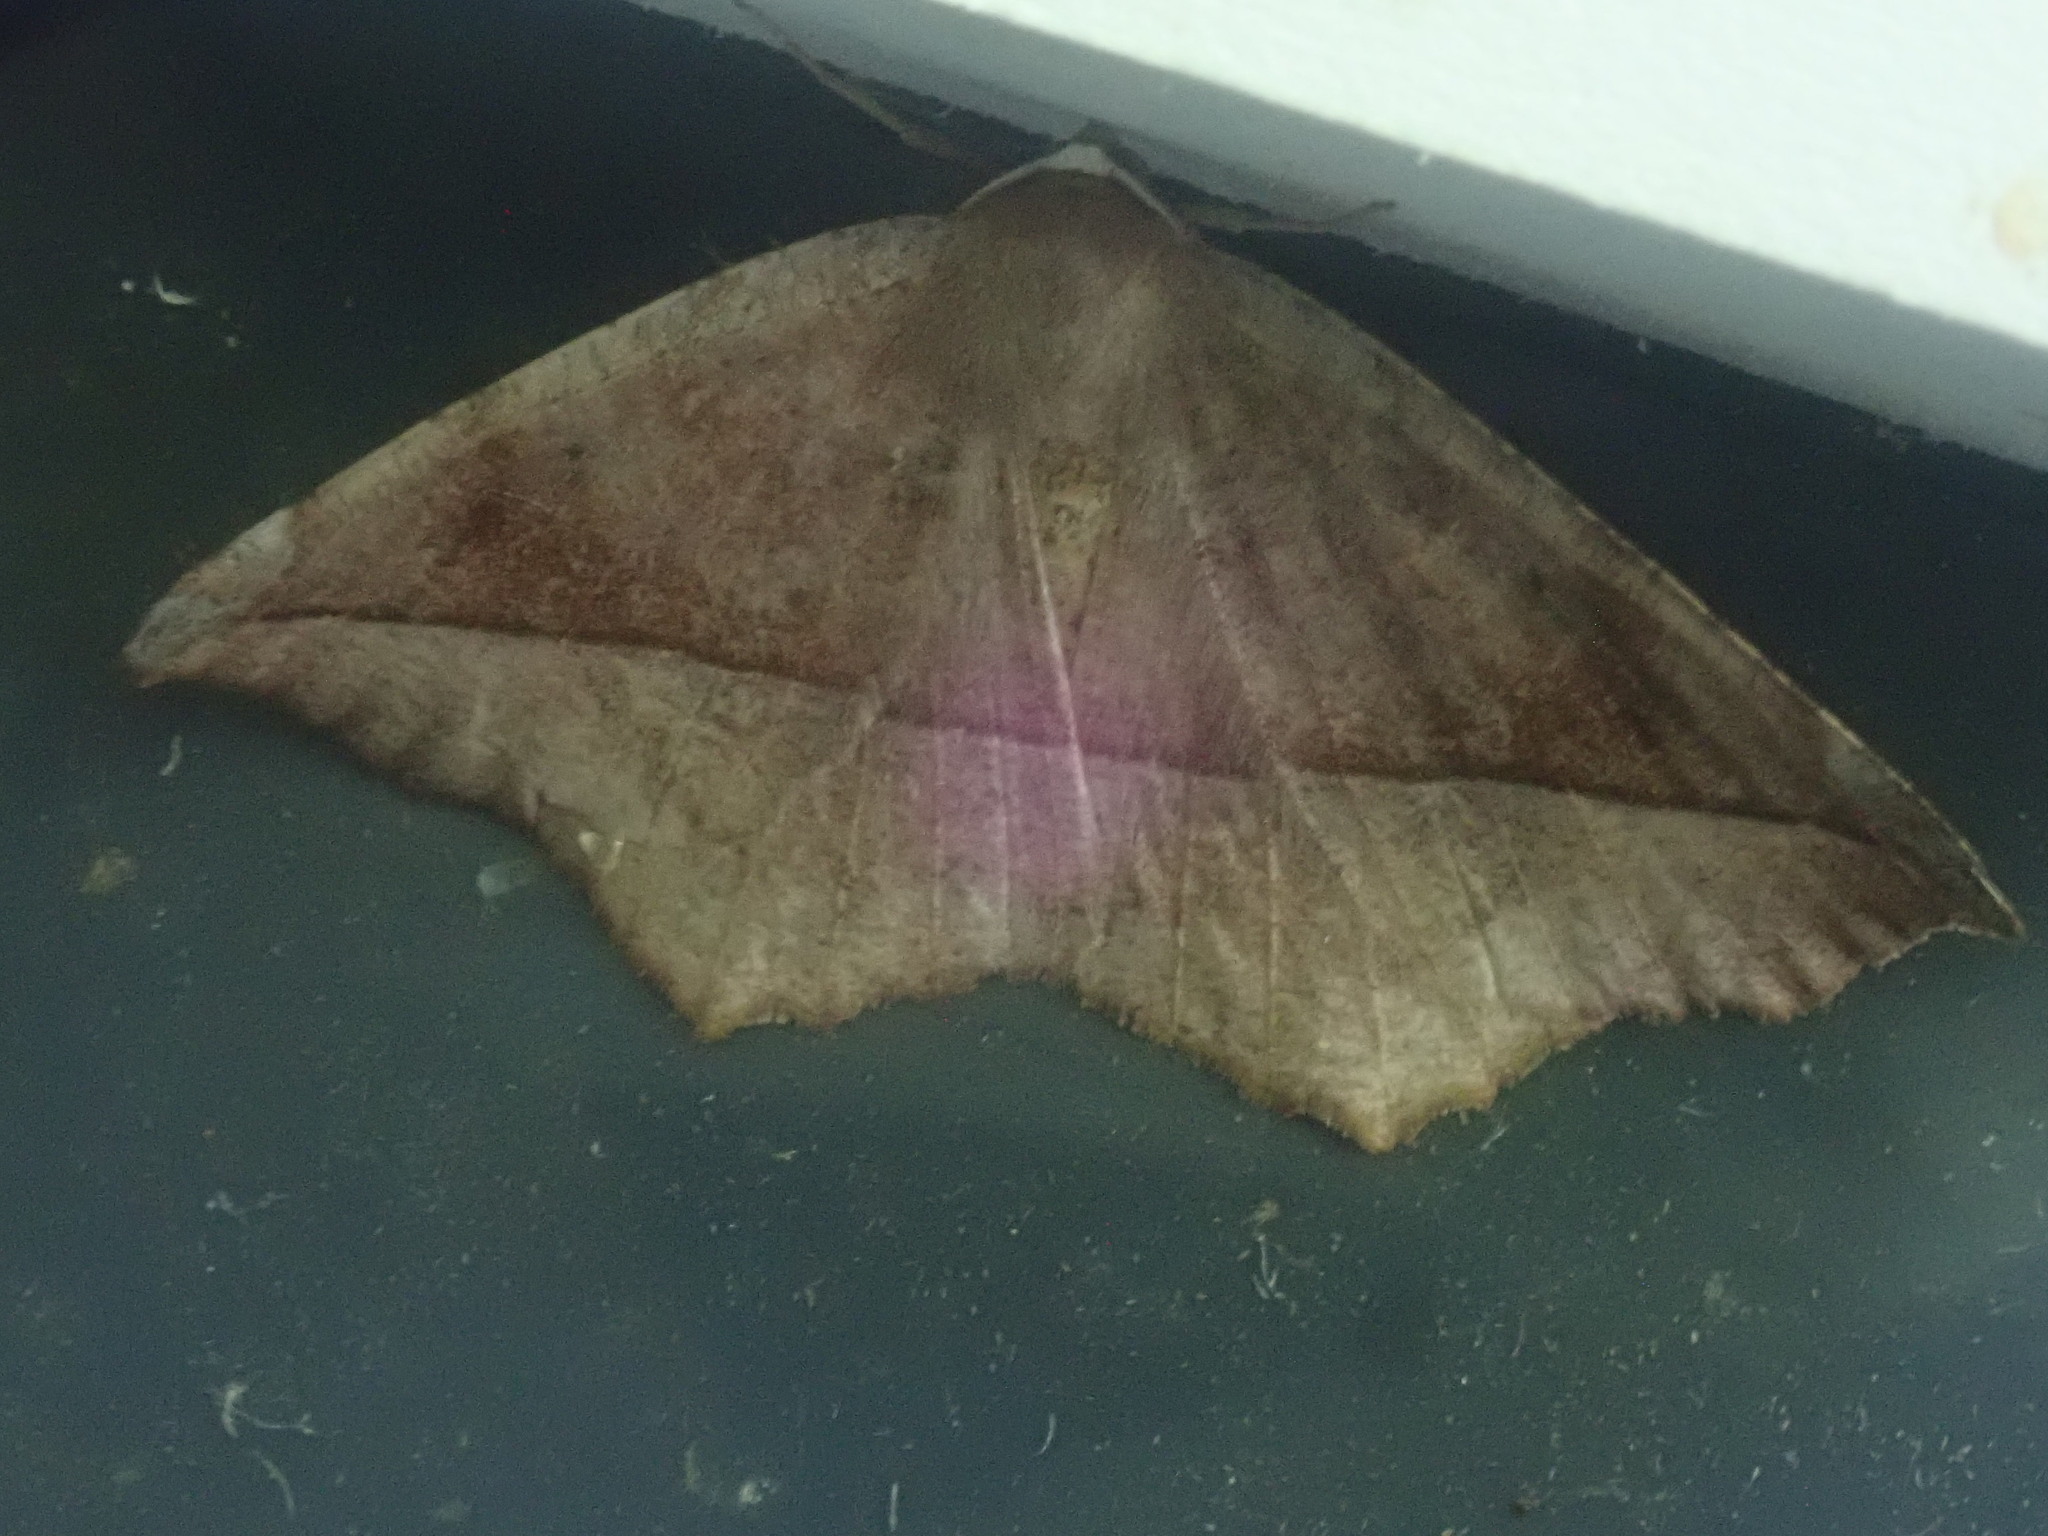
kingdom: Animalia
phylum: Arthropoda
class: Insecta
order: Lepidoptera
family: Geometridae
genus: Eutrapela
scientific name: Eutrapela clemataria
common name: Curved-toothed geometer
